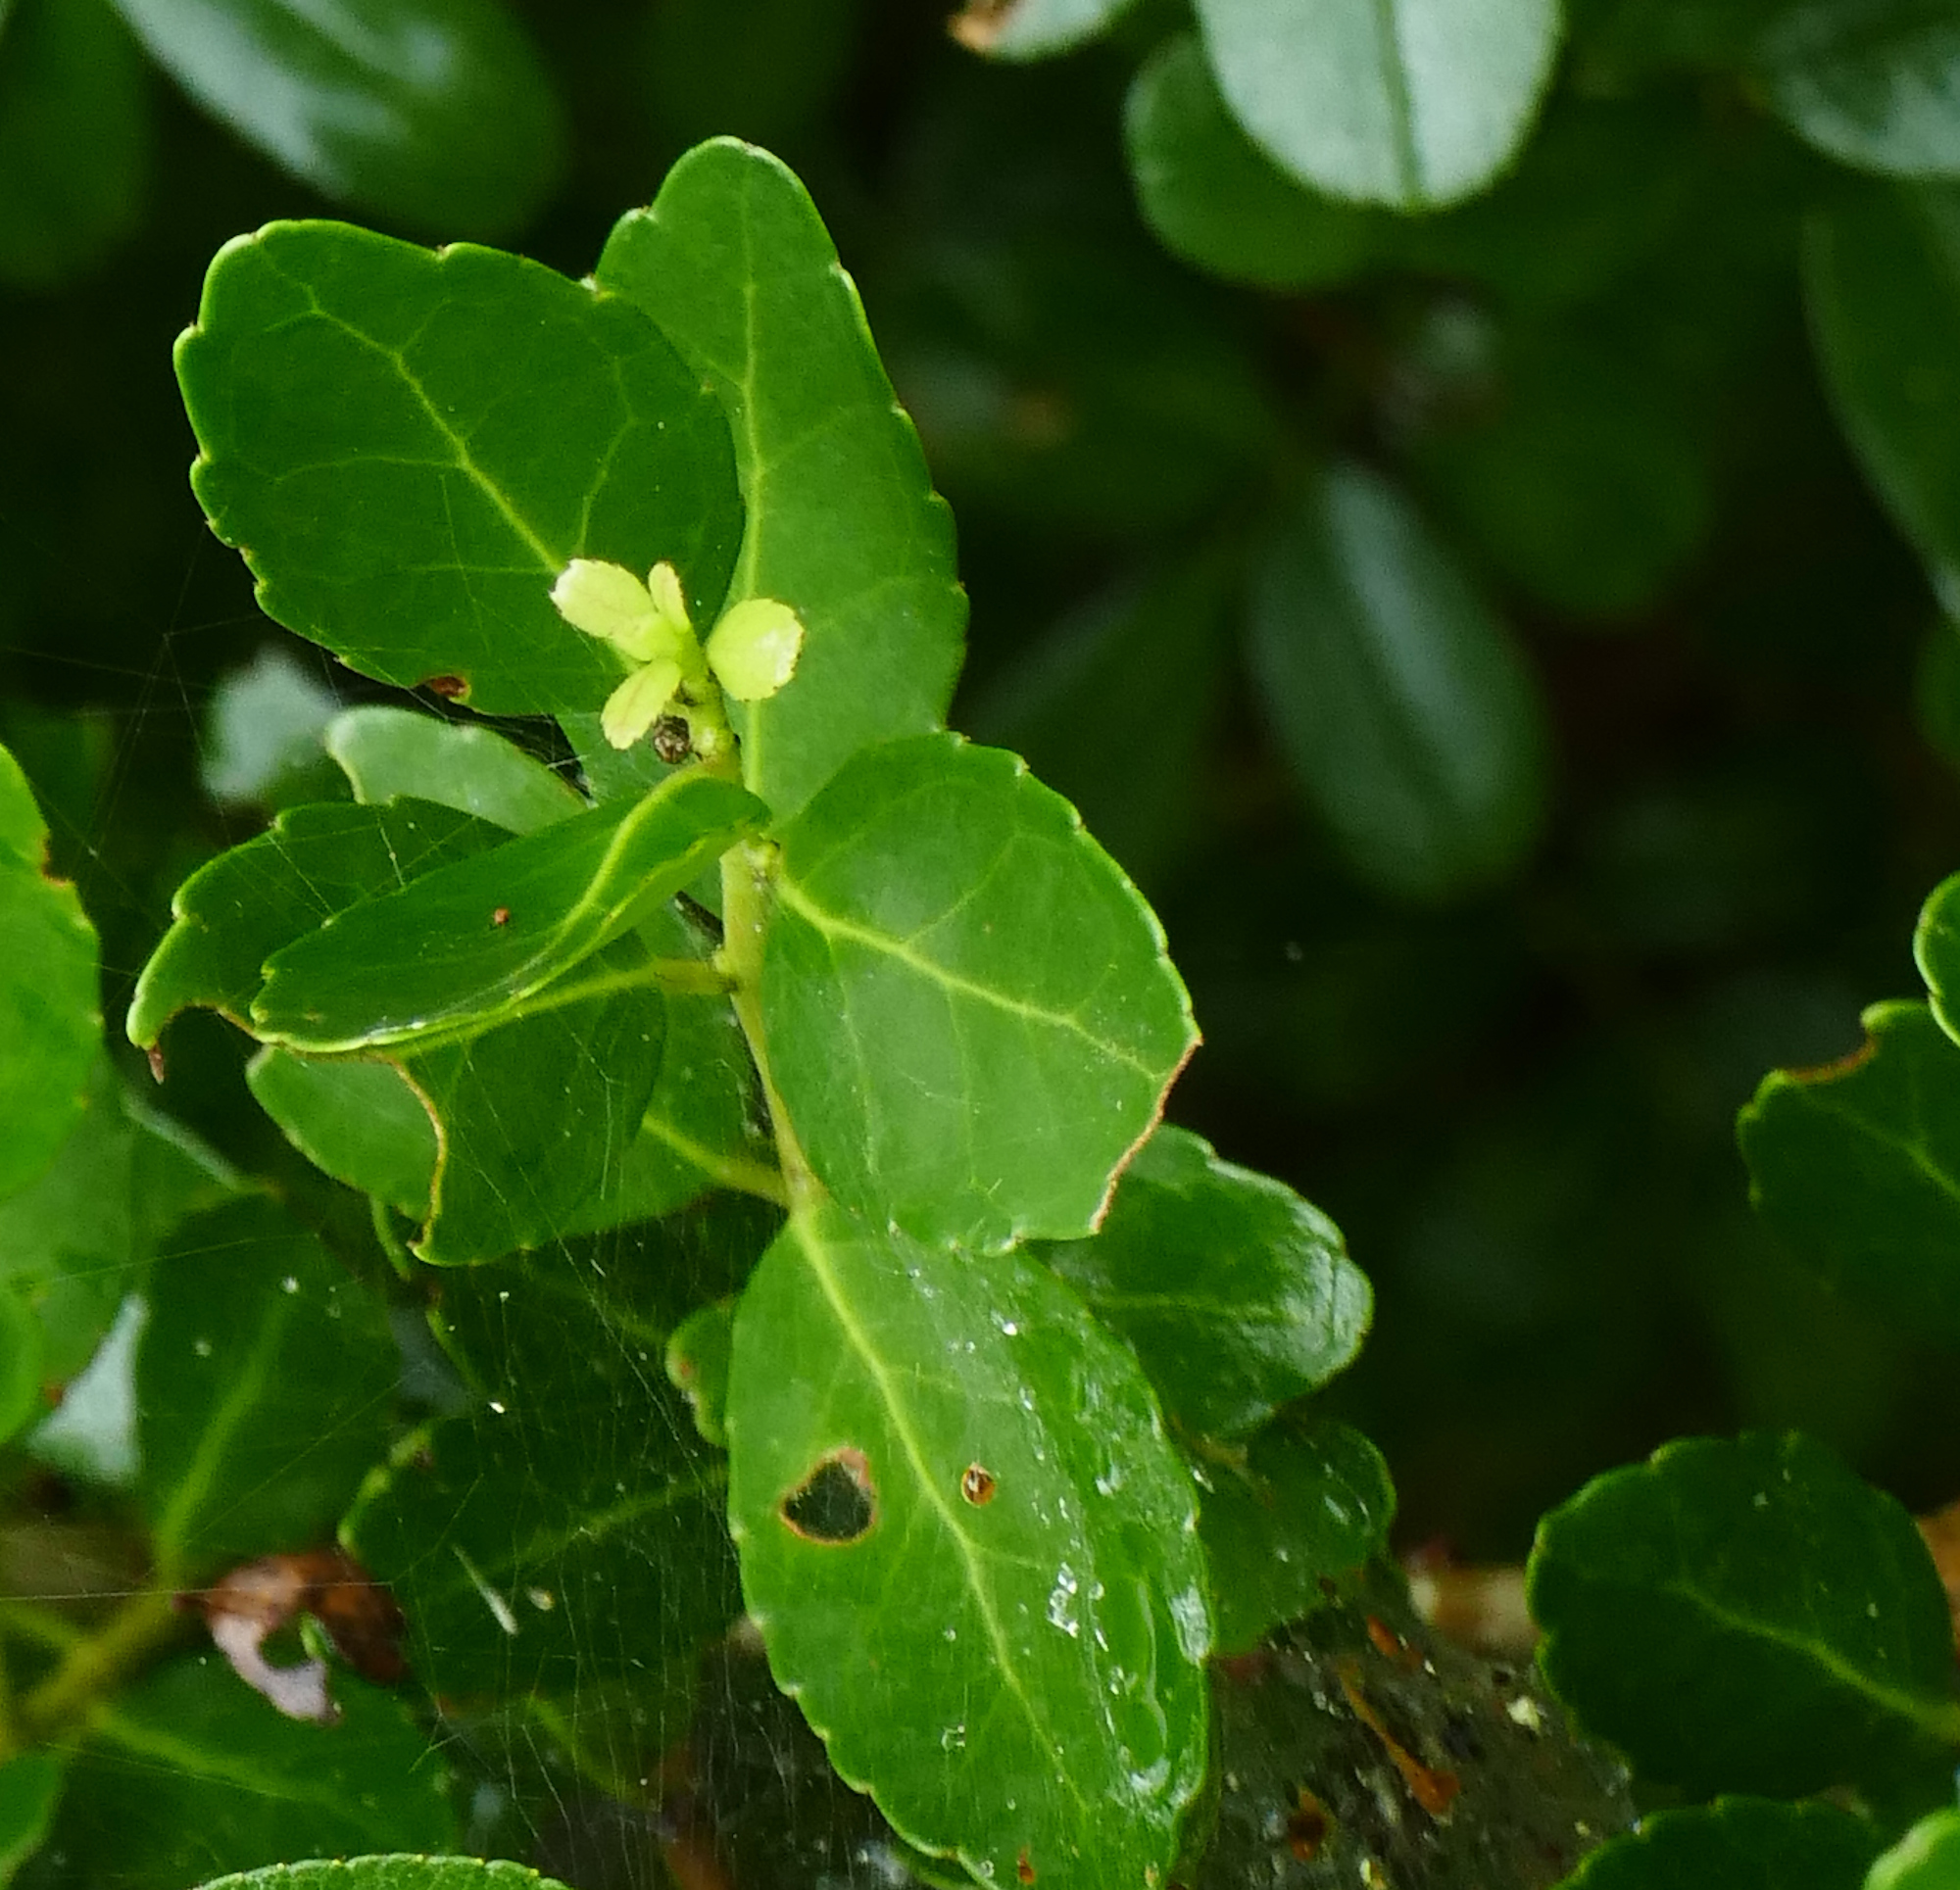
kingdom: Plantae
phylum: Tracheophyta
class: Magnoliopsida
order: Aquifoliales
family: Aquifoliaceae
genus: Ilex
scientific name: Ilex vomitoria
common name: Yaupon holly
